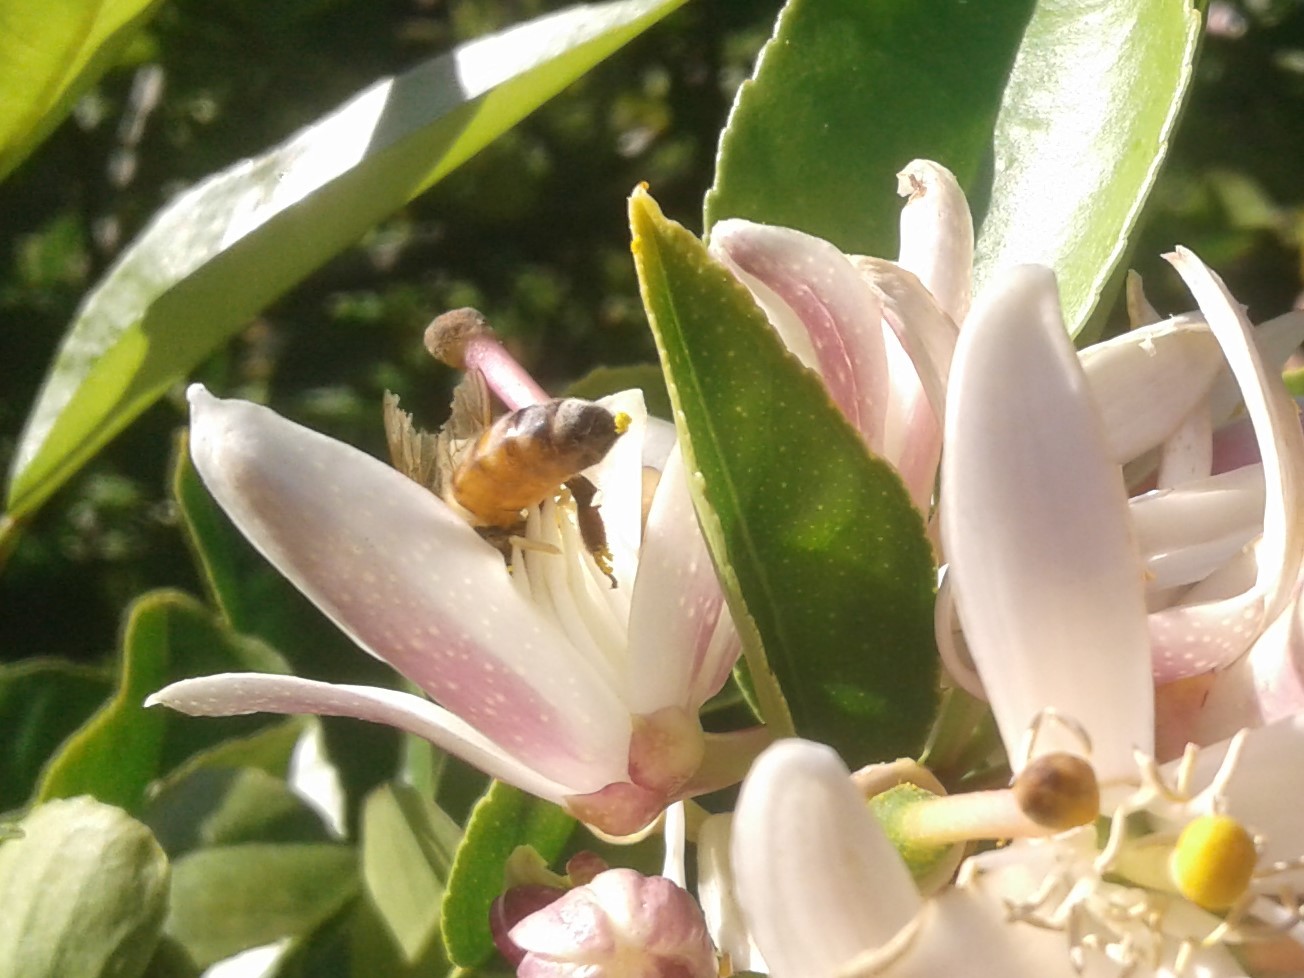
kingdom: Animalia
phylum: Arthropoda
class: Insecta
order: Hymenoptera
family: Apidae
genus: Apis
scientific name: Apis mellifera
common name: Honey bee
